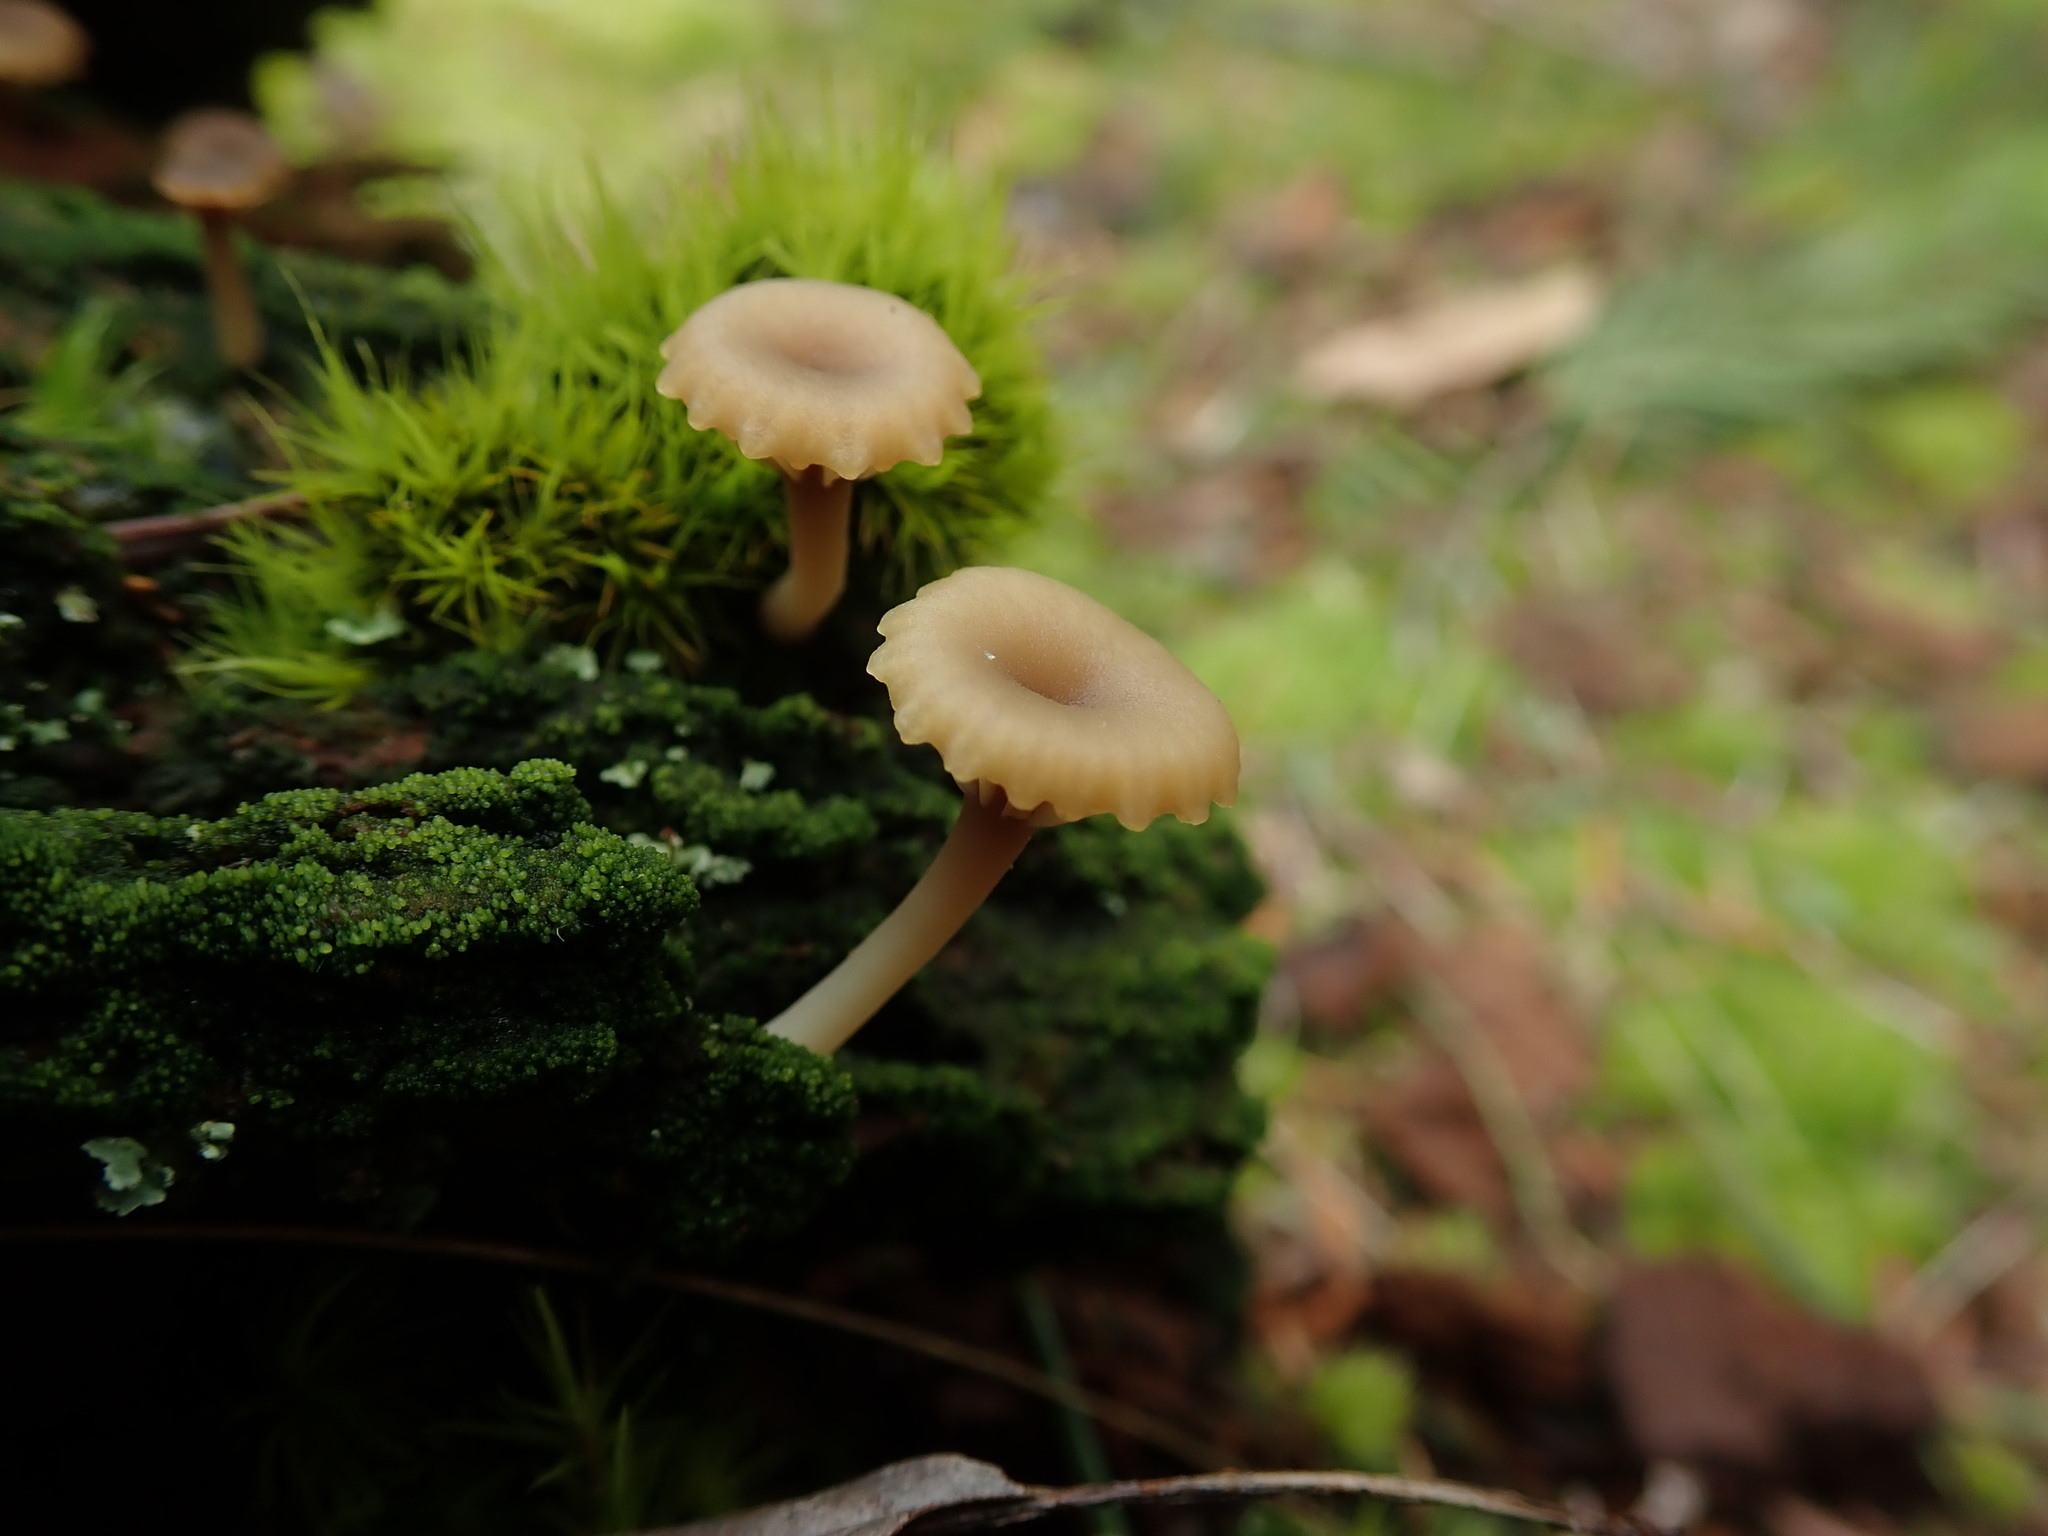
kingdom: Fungi
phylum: Basidiomycota
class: Agaricomycetes
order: Agaricales
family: Hygrophoraceae
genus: Lichenomphalia
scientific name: Lichenomphalia
